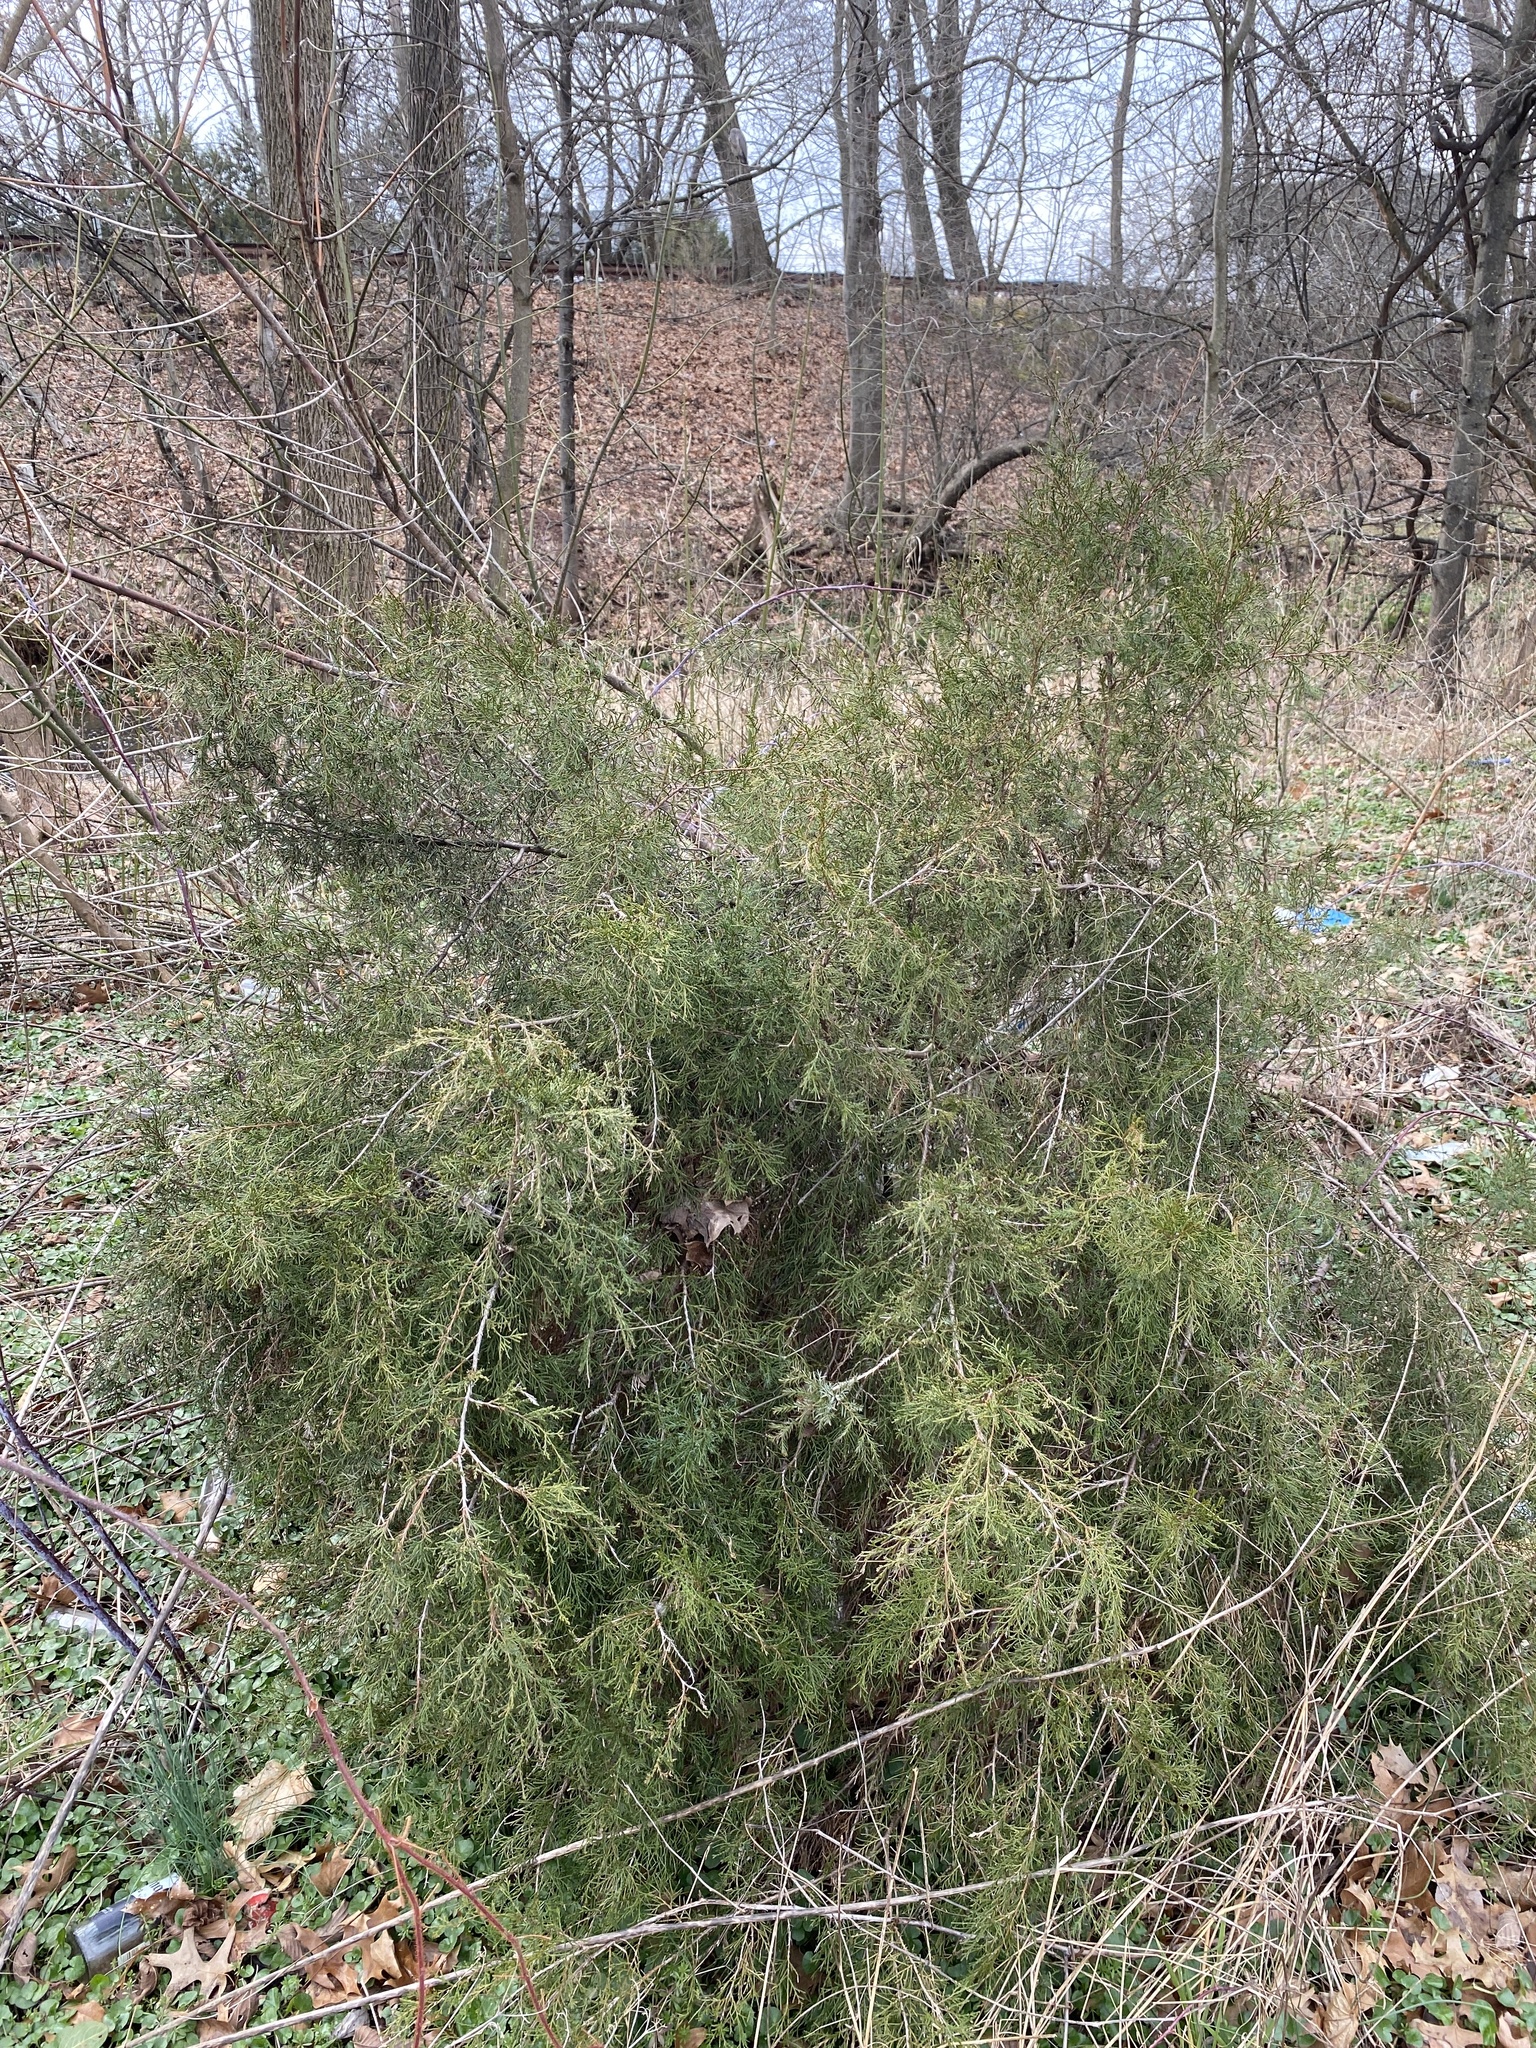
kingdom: Plantae
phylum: Tracheophyta
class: Pinopsida
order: Pinales
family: Cupressaceae
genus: Juniperus
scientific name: Juniperus virginiana
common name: Red juniper
